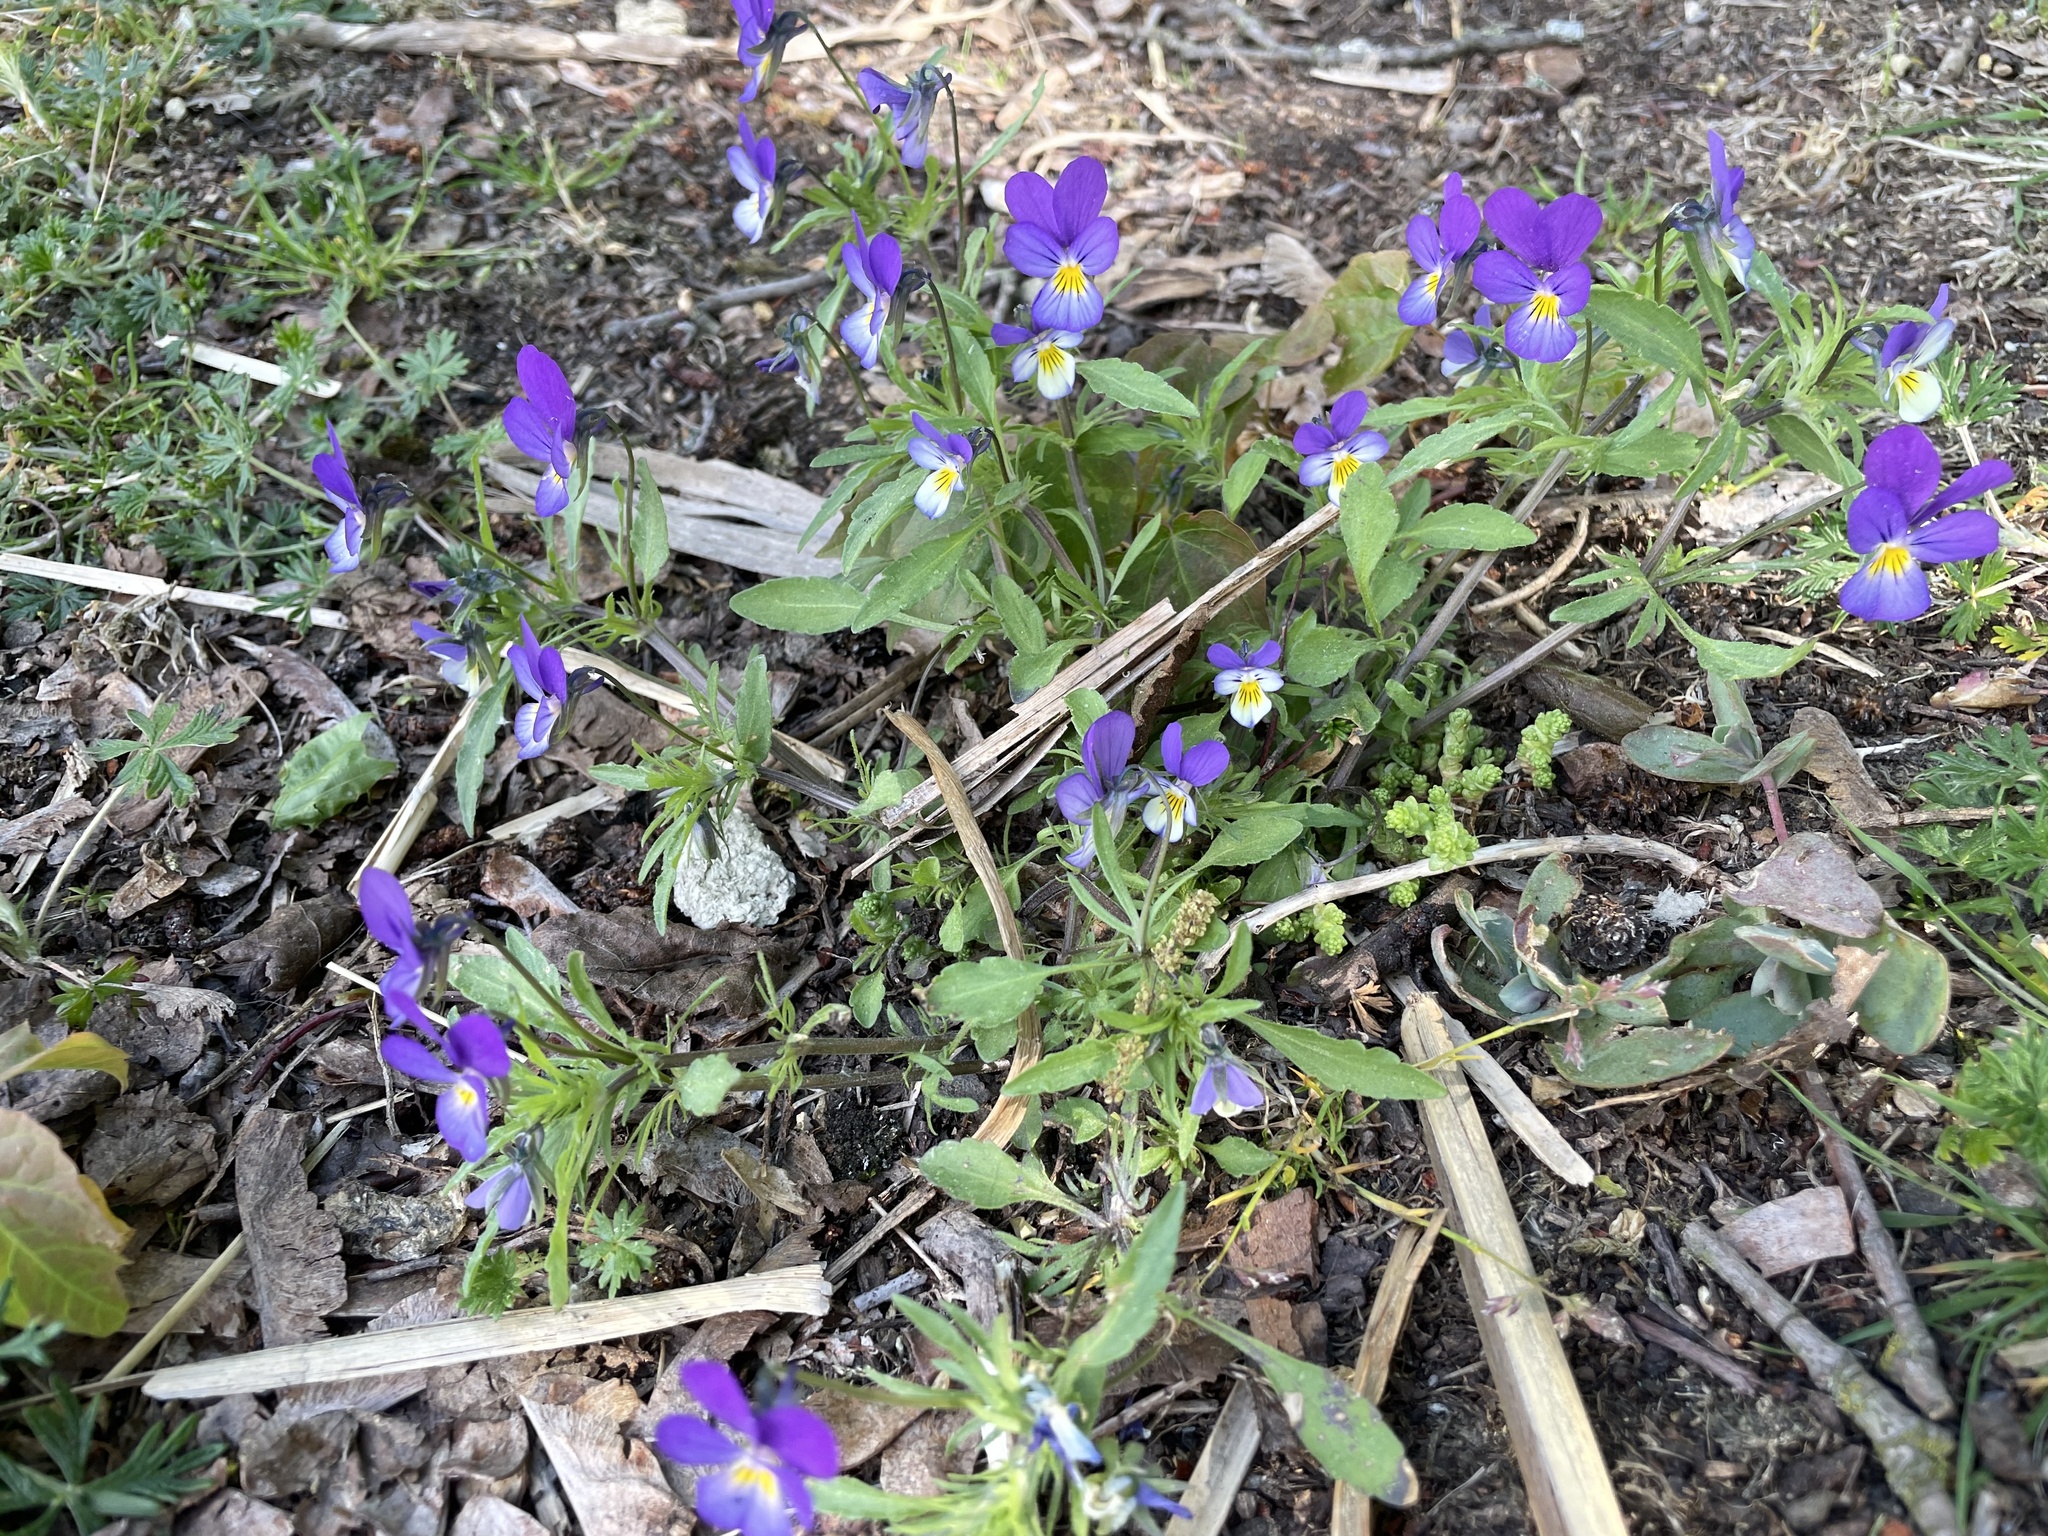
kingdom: Plantae
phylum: Tracheophyta
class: Magnoliopsida
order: Malpighiales
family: Violaceae
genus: Viola
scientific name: Viola tricolor
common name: Pansy
